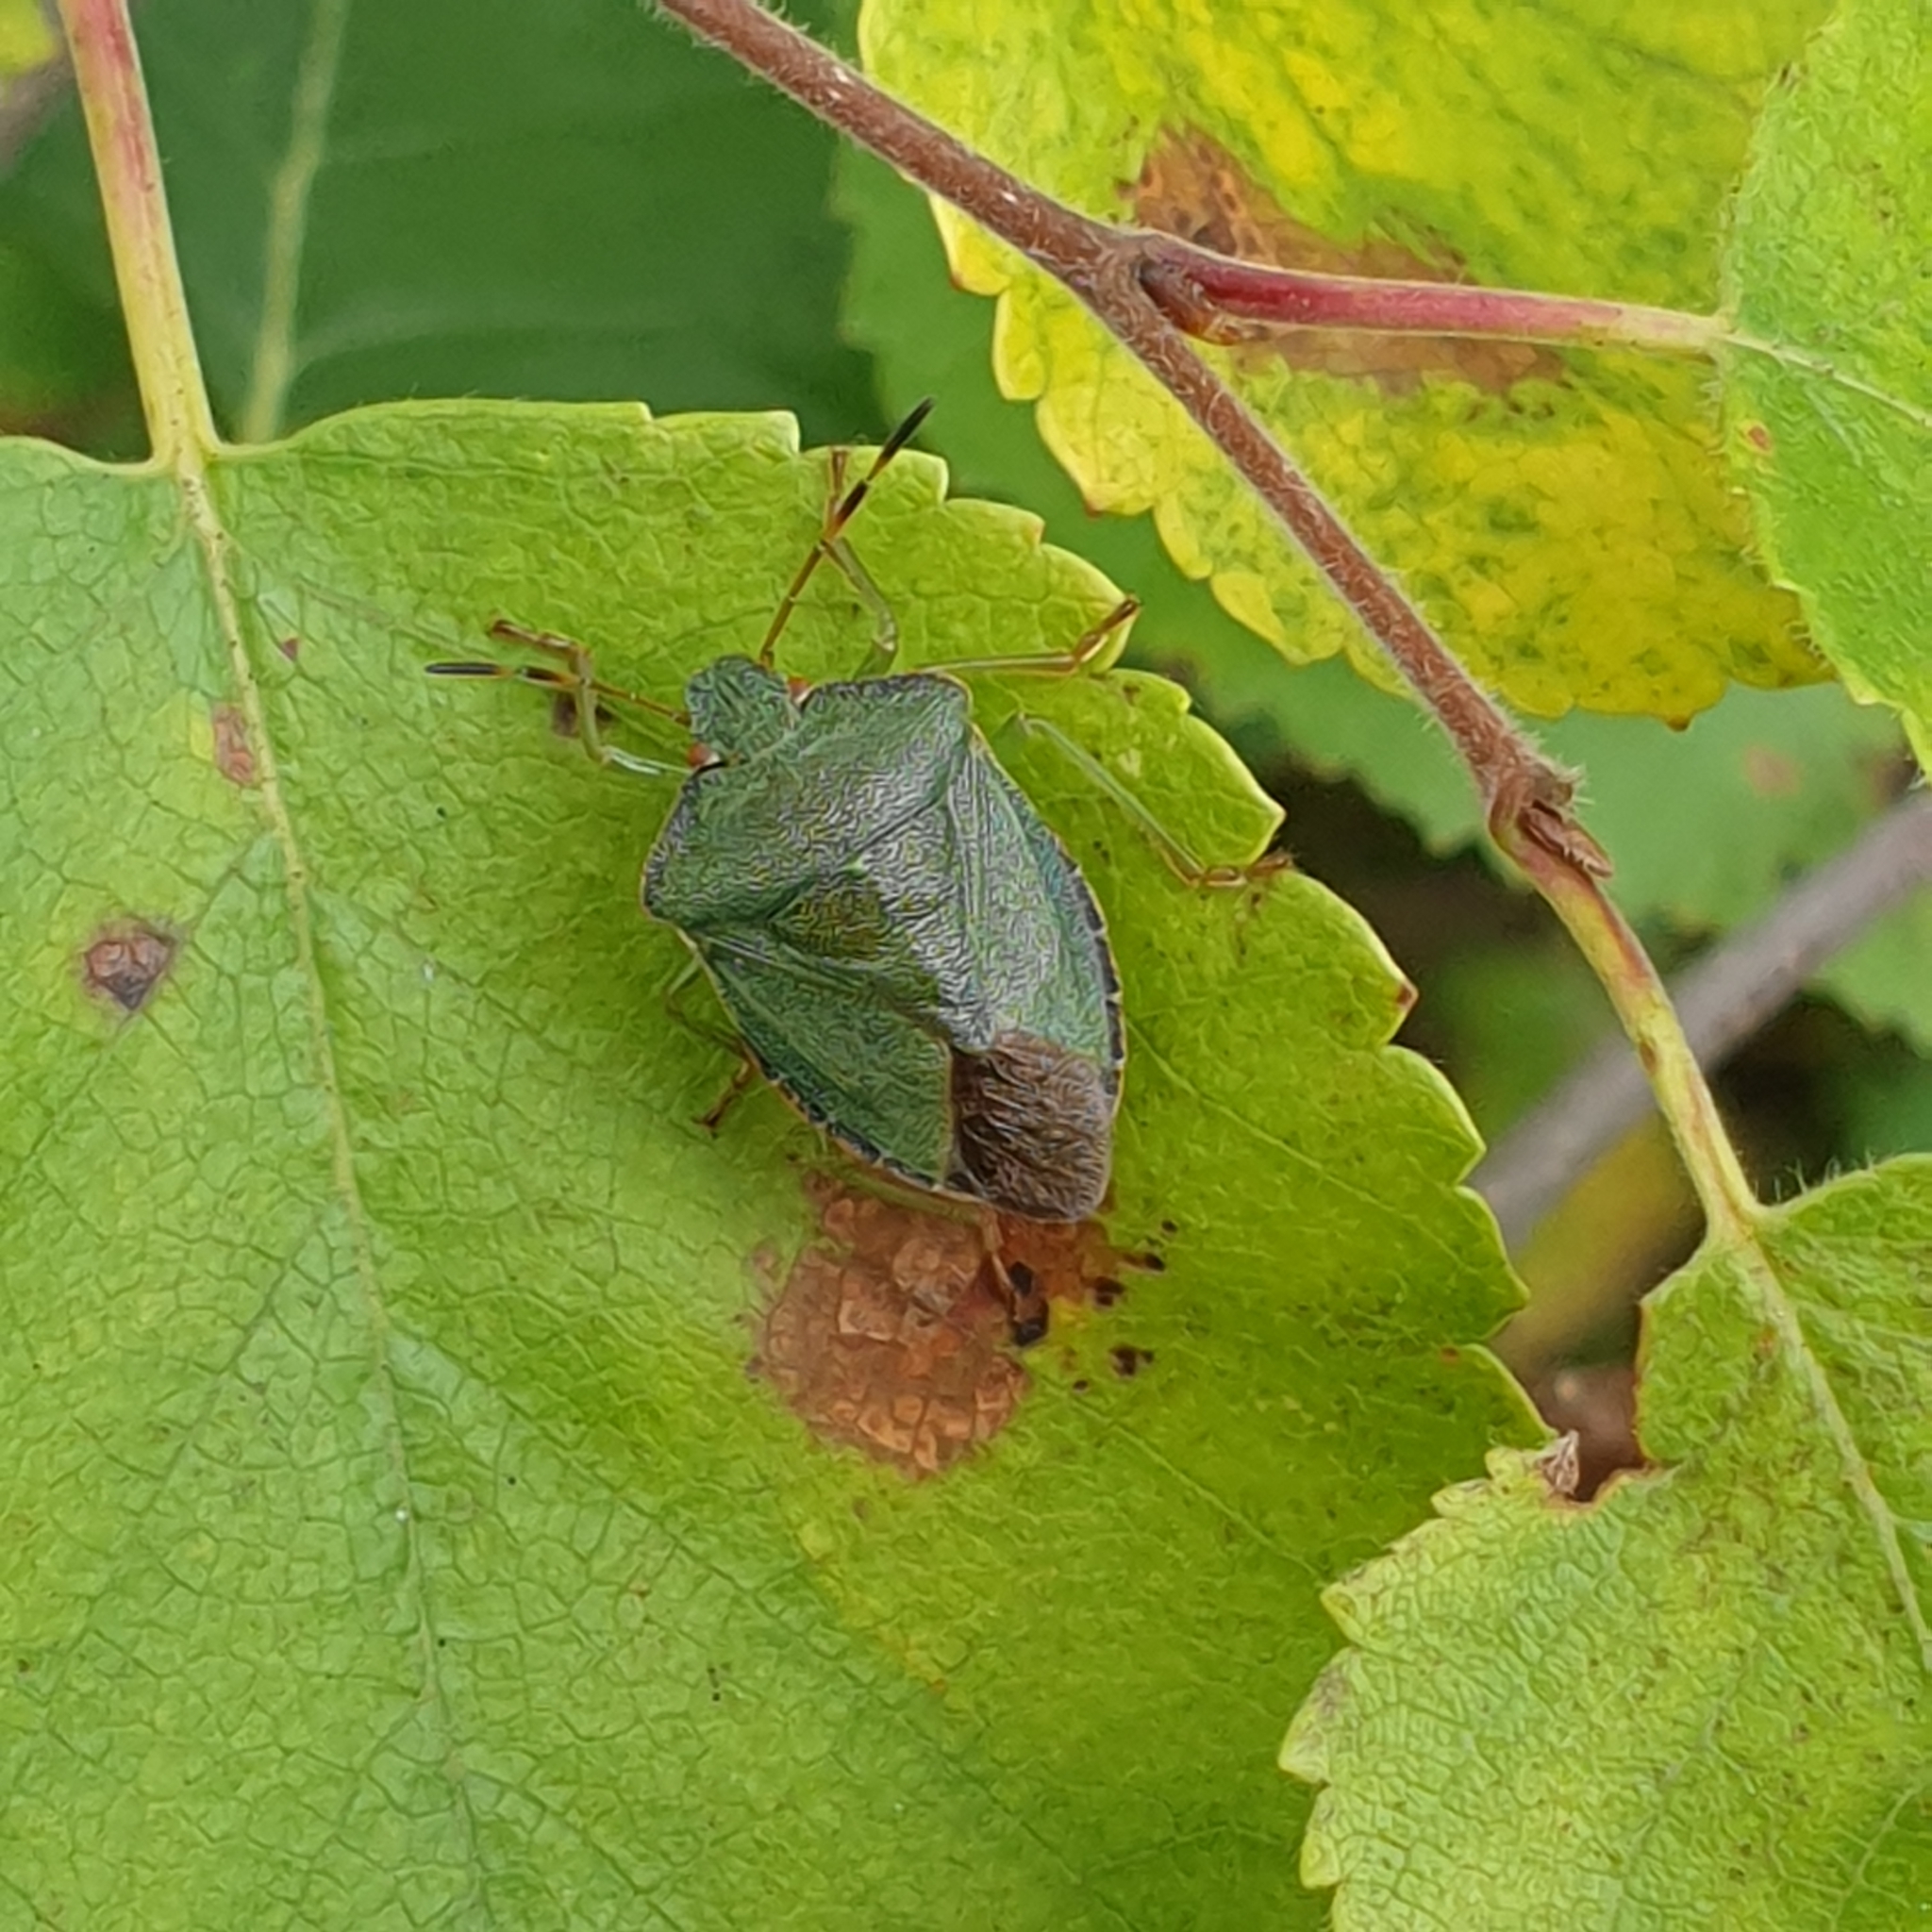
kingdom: Animalia
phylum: Arthropoda
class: Insecta
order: Hemiptera
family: Pentatomidae
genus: Palomena
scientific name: Palomena prasina
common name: Green shieldbug
